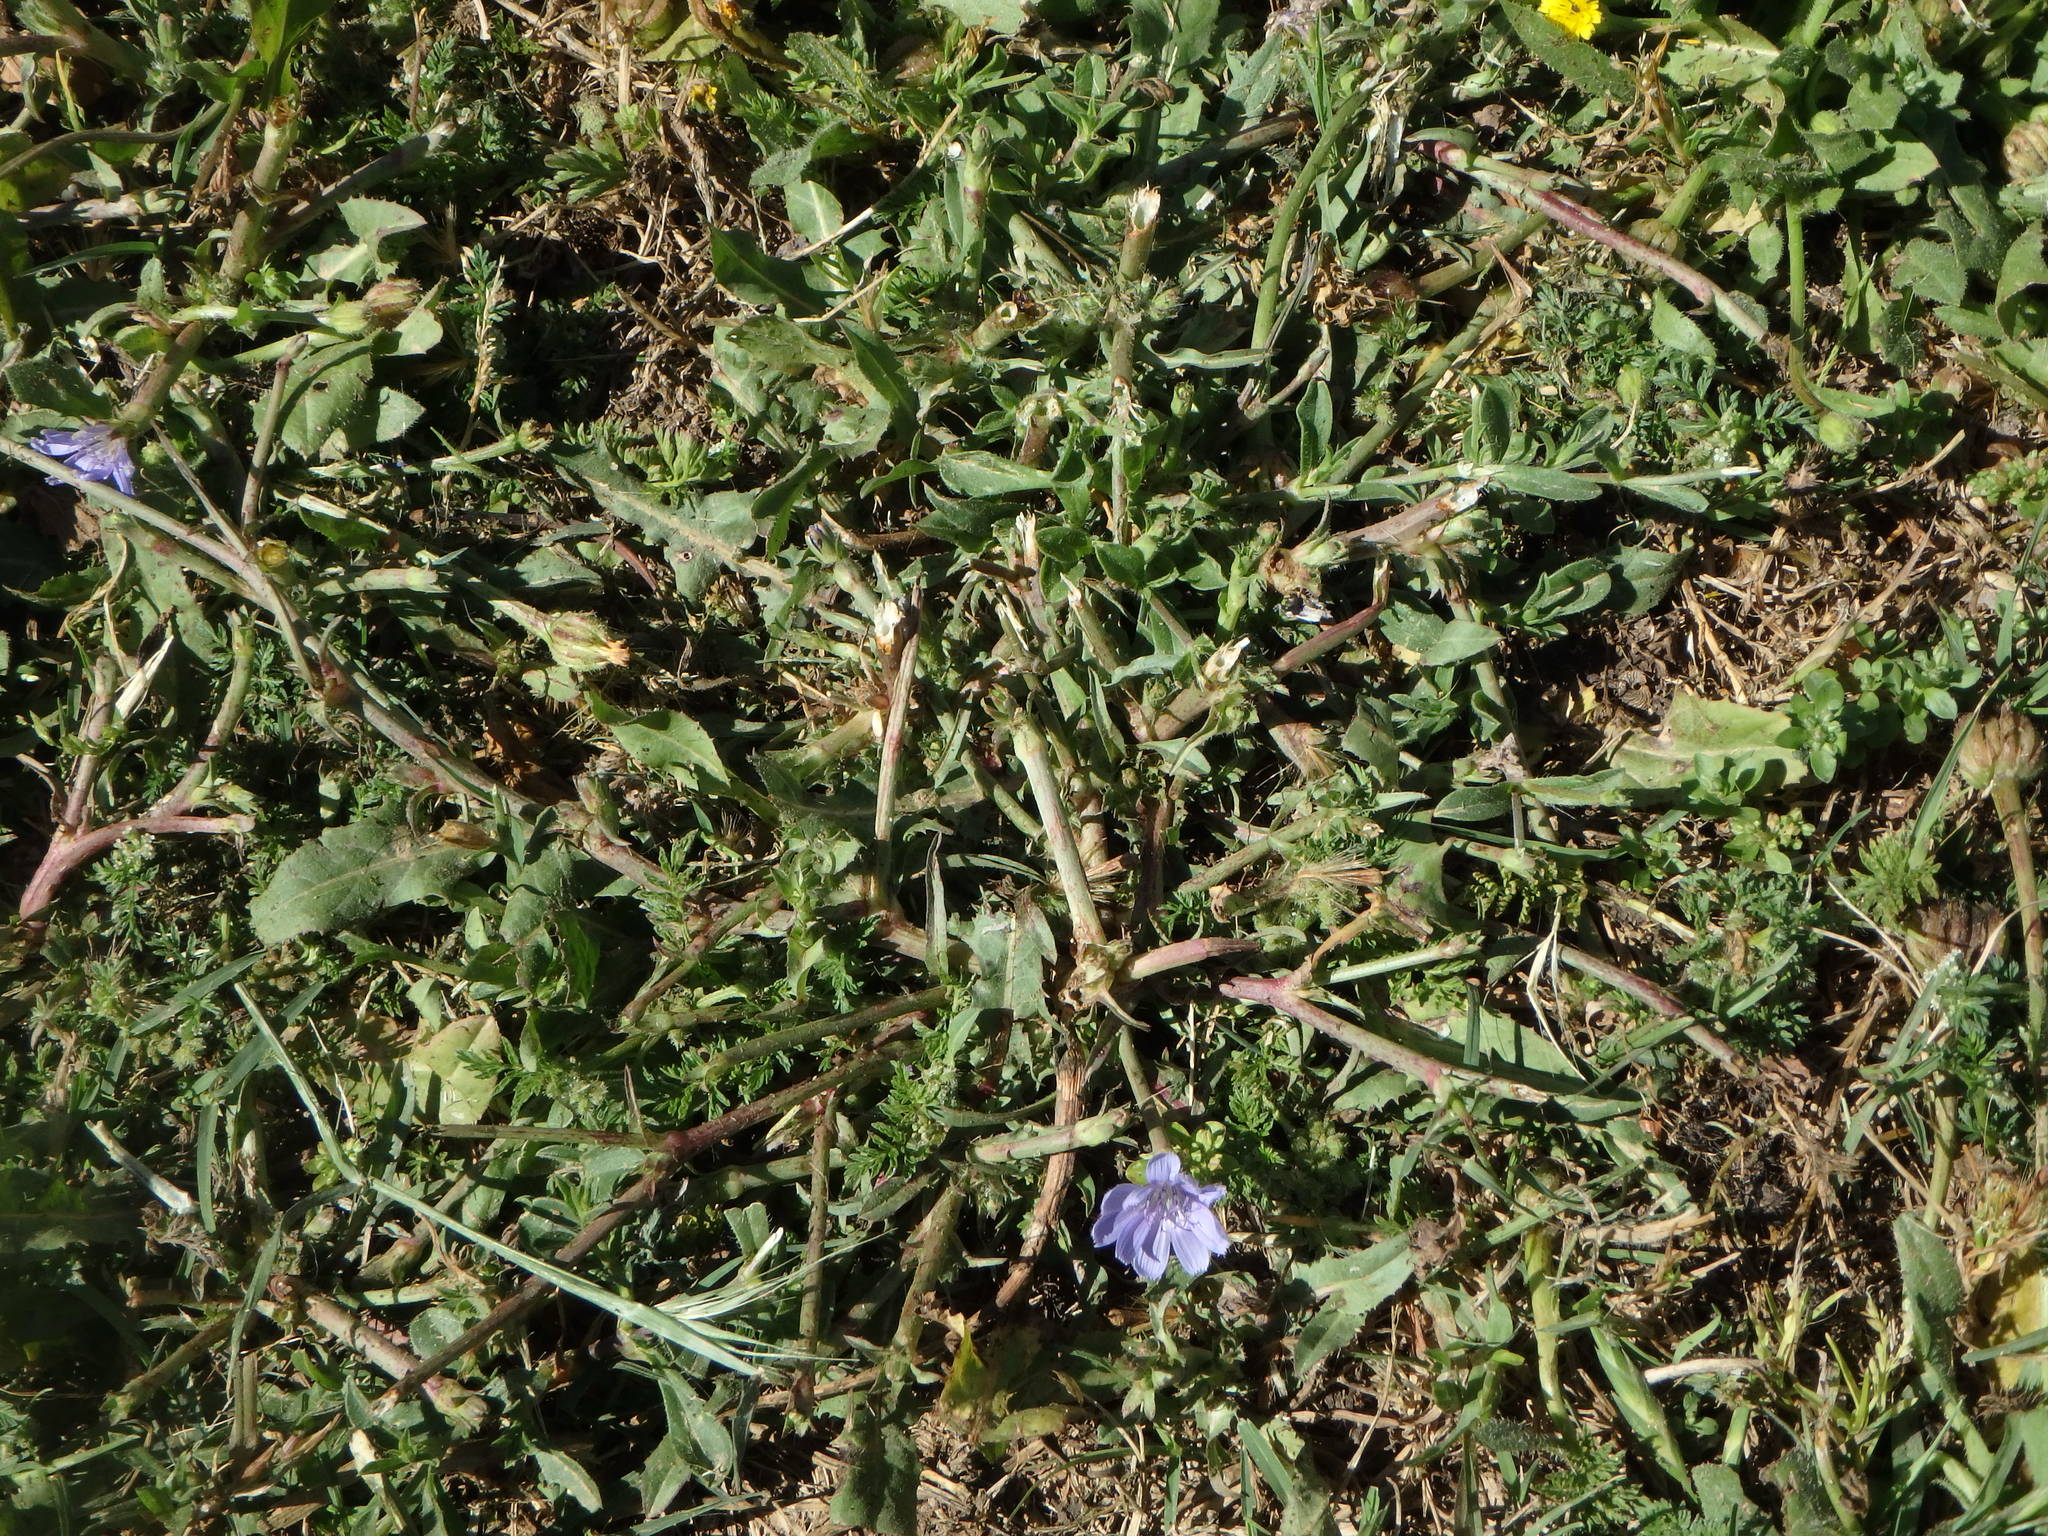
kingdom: Plantae
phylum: Tracheophyta
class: Magnoliopsida
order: Asterales
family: Asteraceae
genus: Cichorium
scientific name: Cichorium intybus
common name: Chicory
